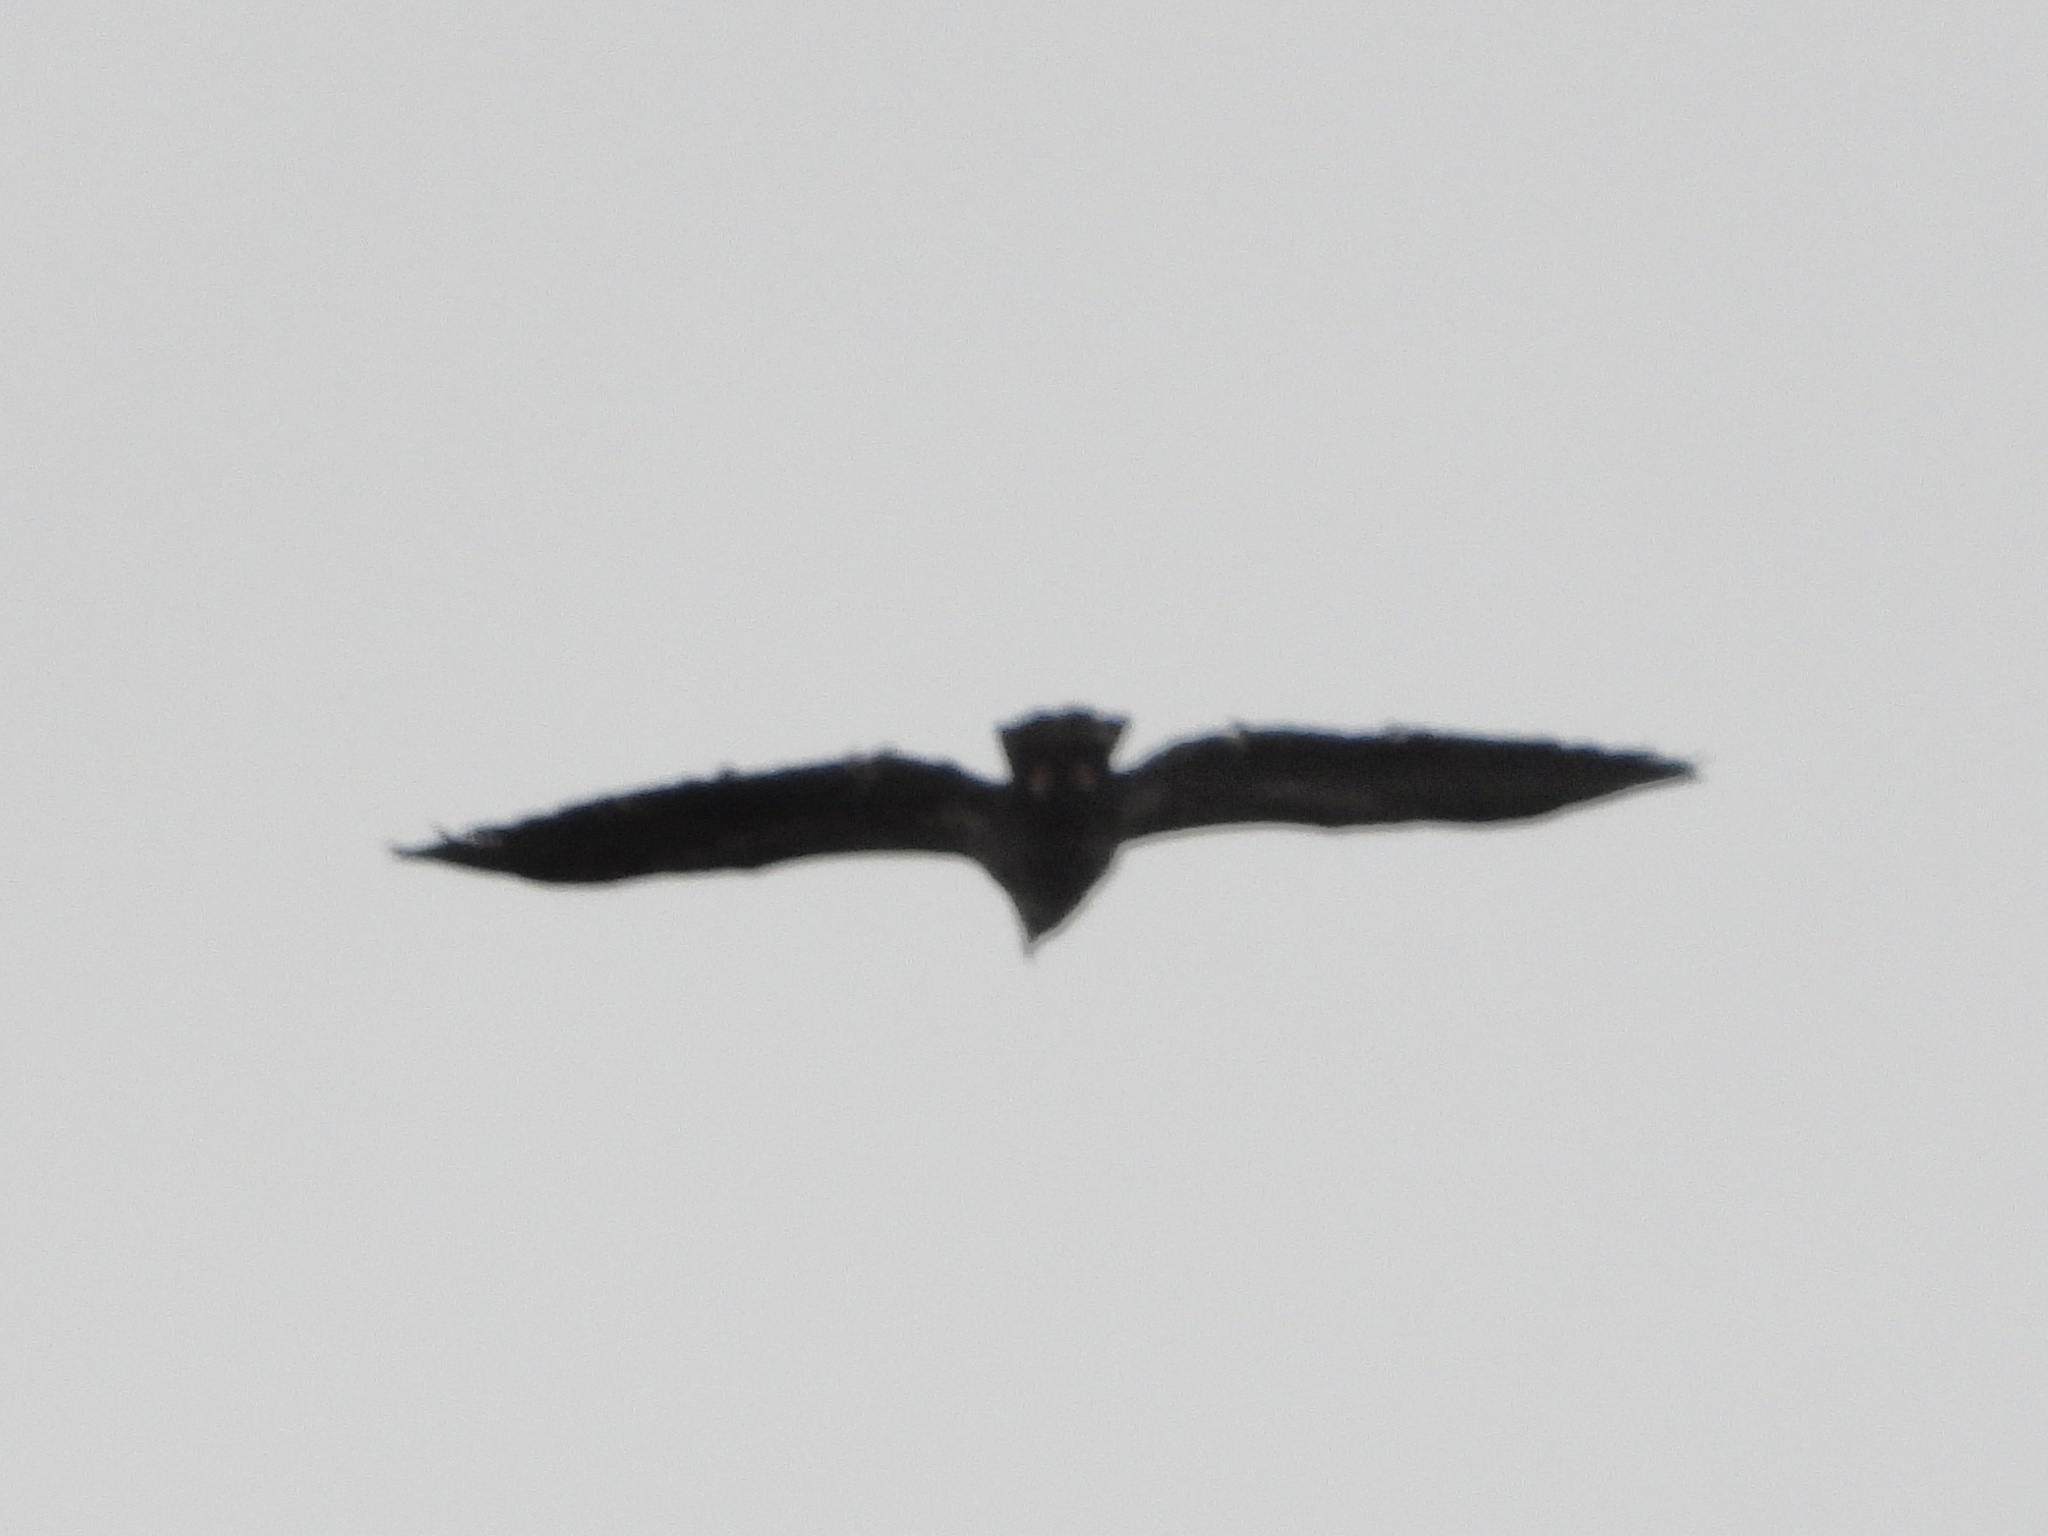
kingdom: Animalia
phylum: Chordata
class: Aves
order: Accipitriformes
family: Accipitridae
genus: Haliaeetus
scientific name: Haliaeetus leucocephalus
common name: Bald eagle
